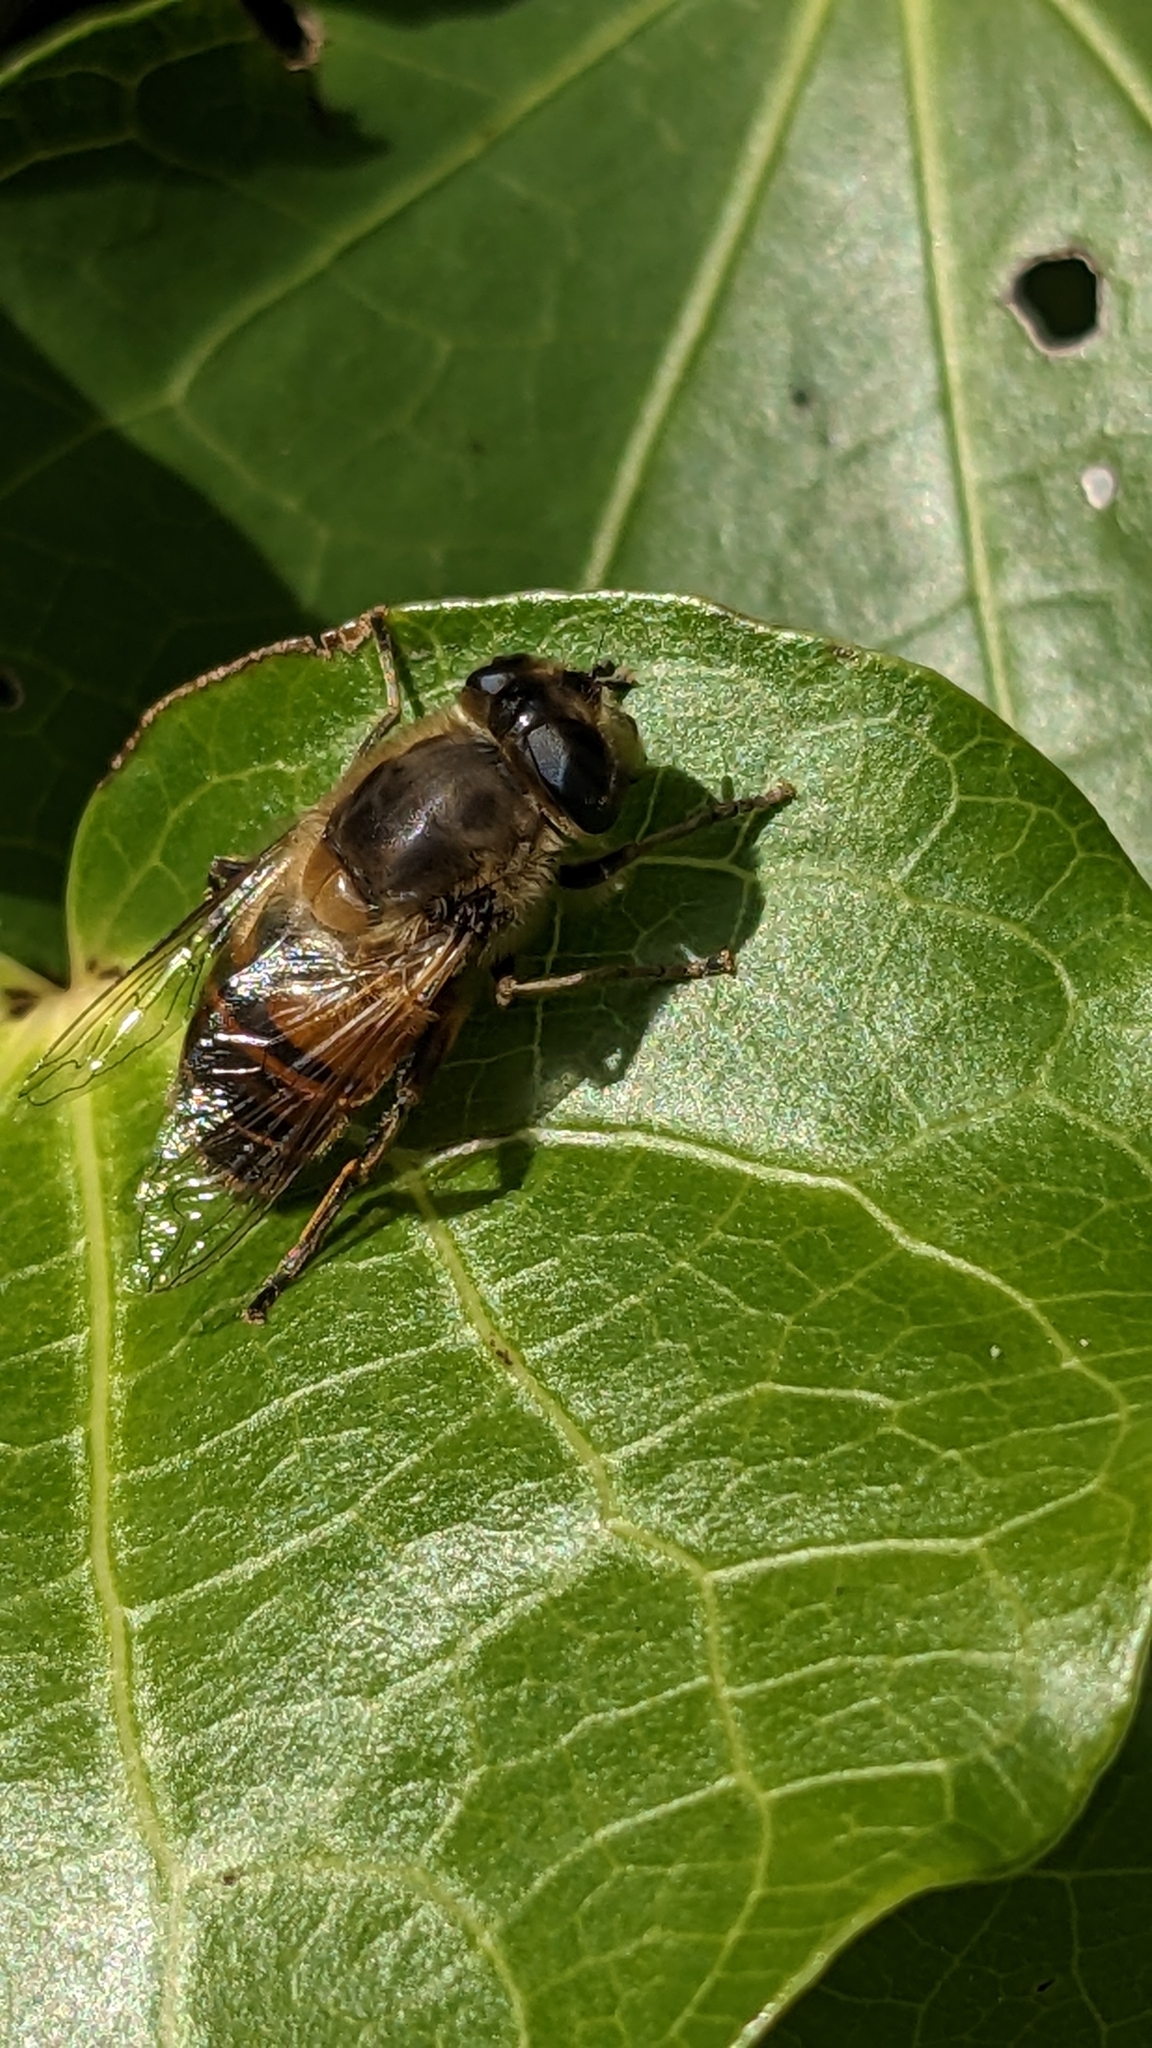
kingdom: Animalia
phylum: Arthropoda
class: Insecta
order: Diptera
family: Syrphidae
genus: Eristalis
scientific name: Eristalis tenax
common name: Drone fly
